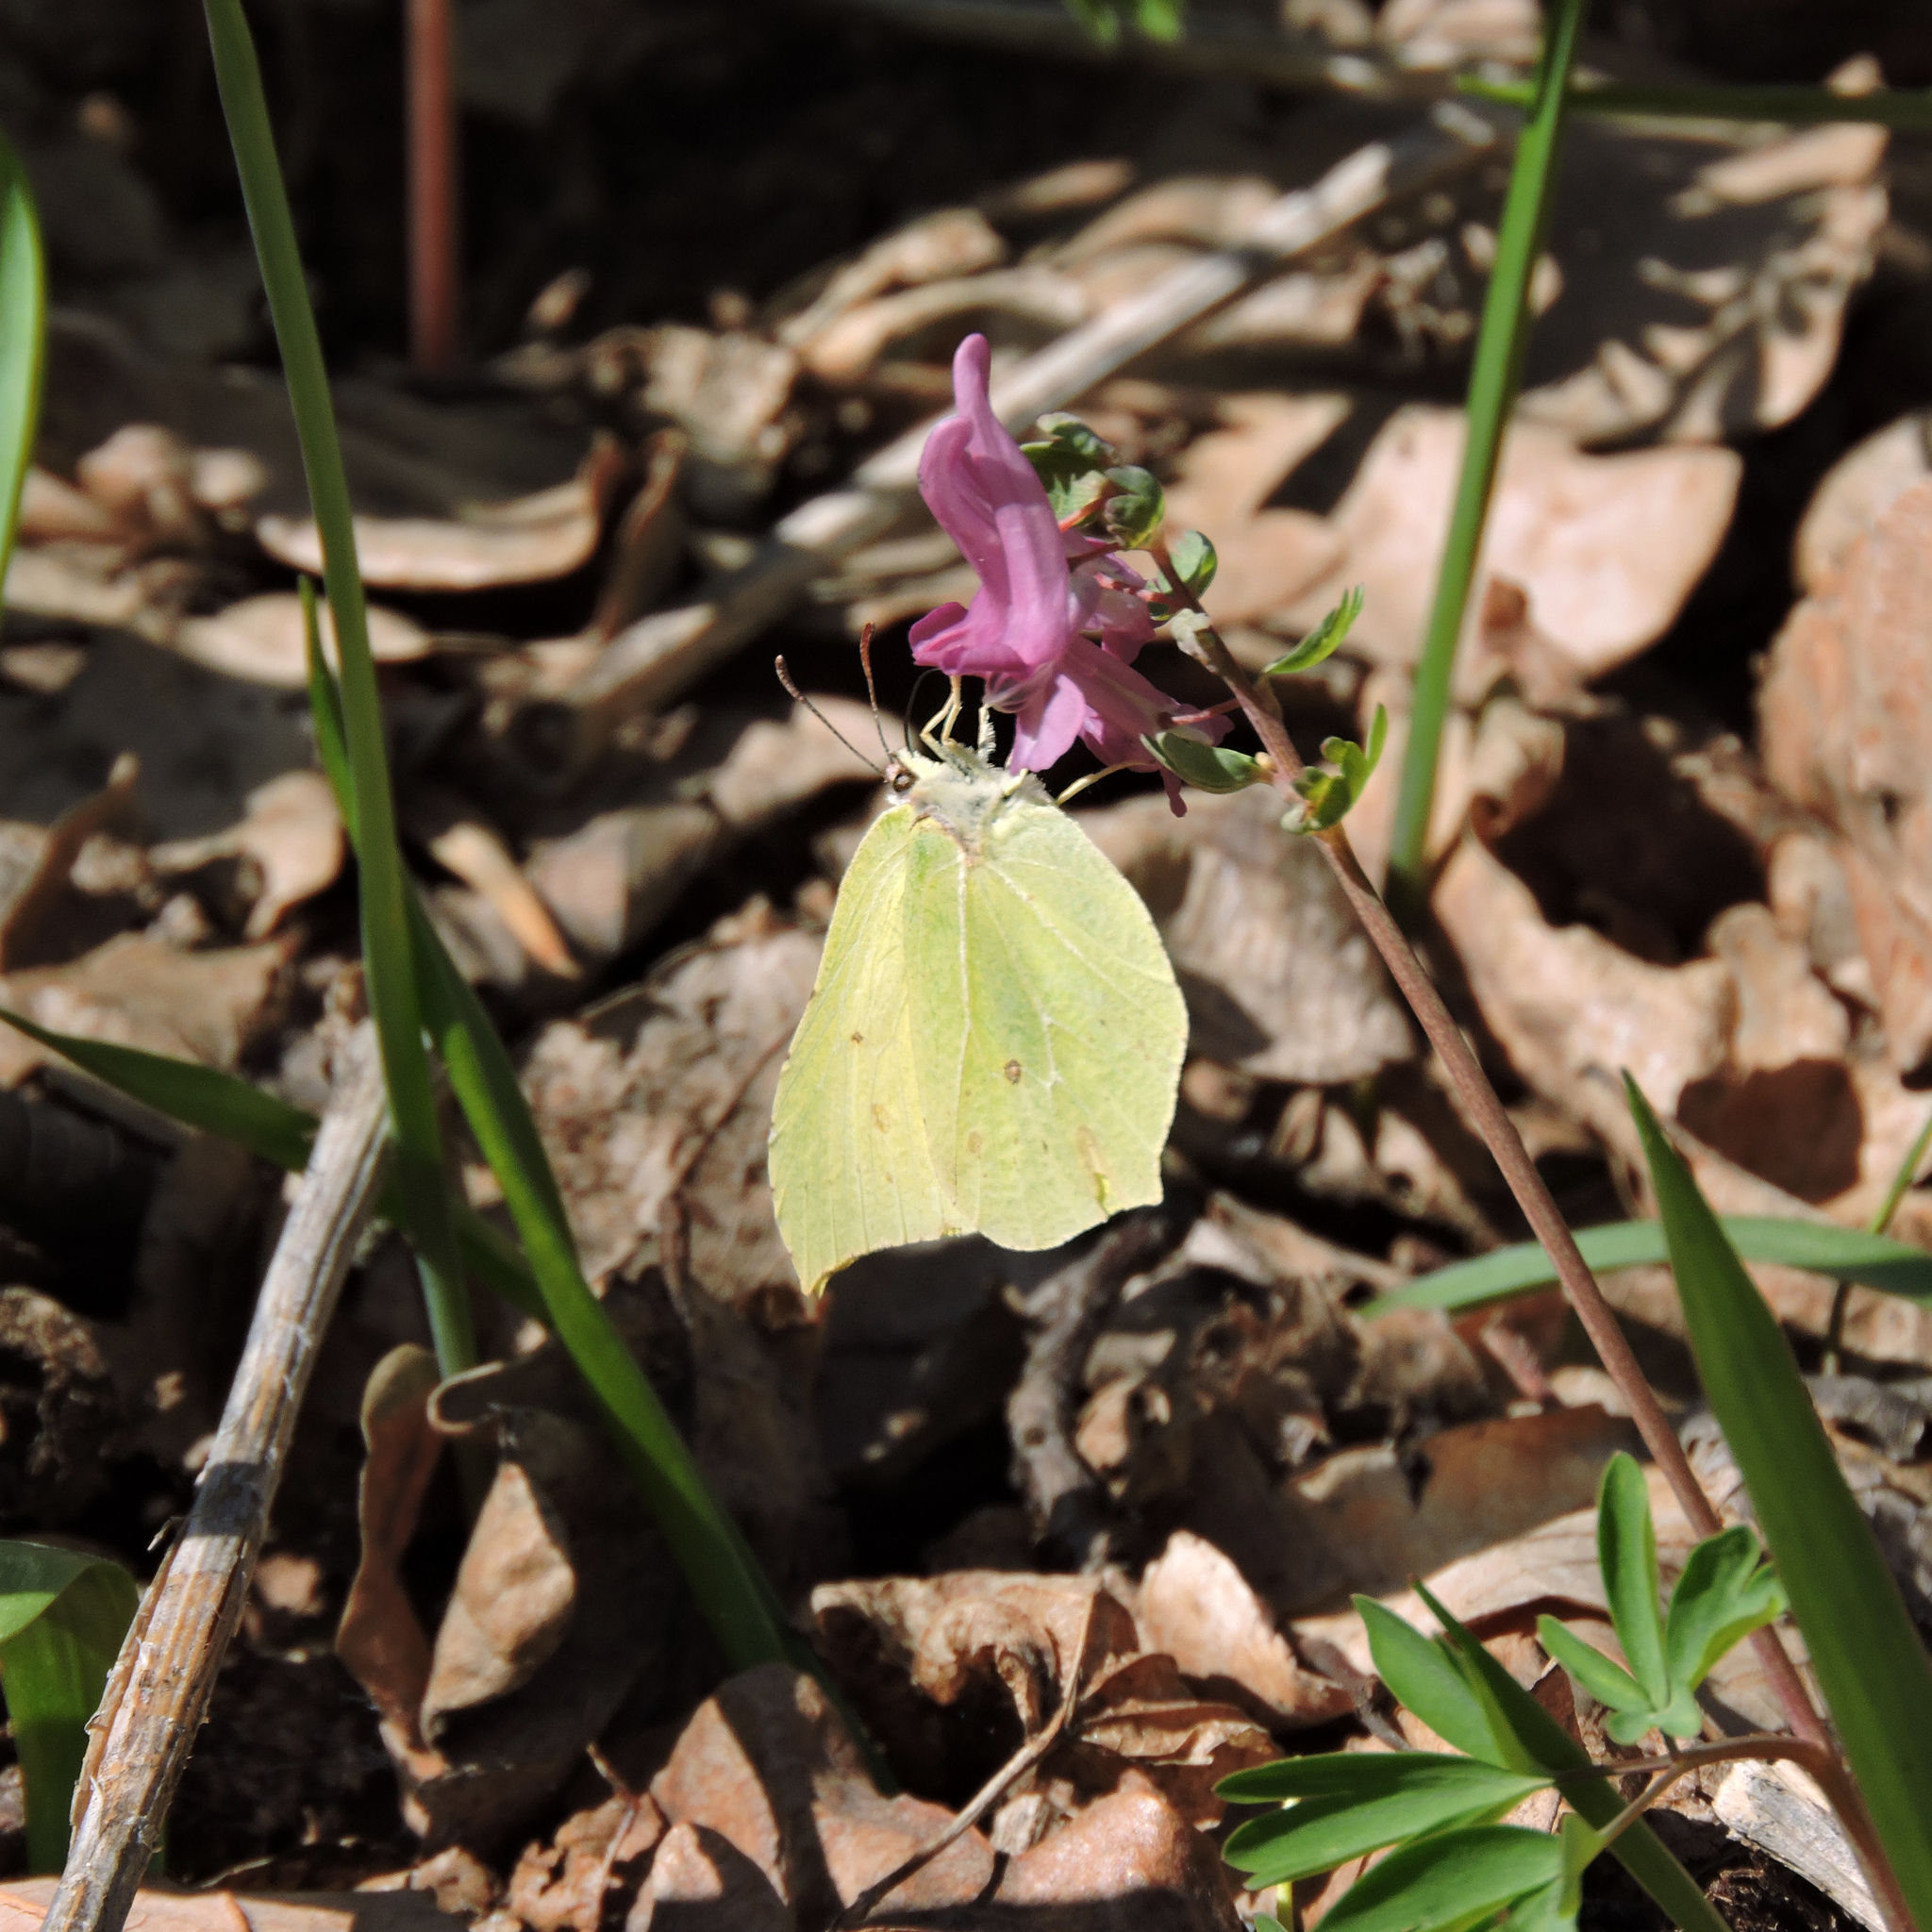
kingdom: Animalia
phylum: Arthropoda
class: Insecta
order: Lepidoptera
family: Pieridae
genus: Gonepteryx
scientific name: Gonepteryx rhamni
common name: Brimstone
